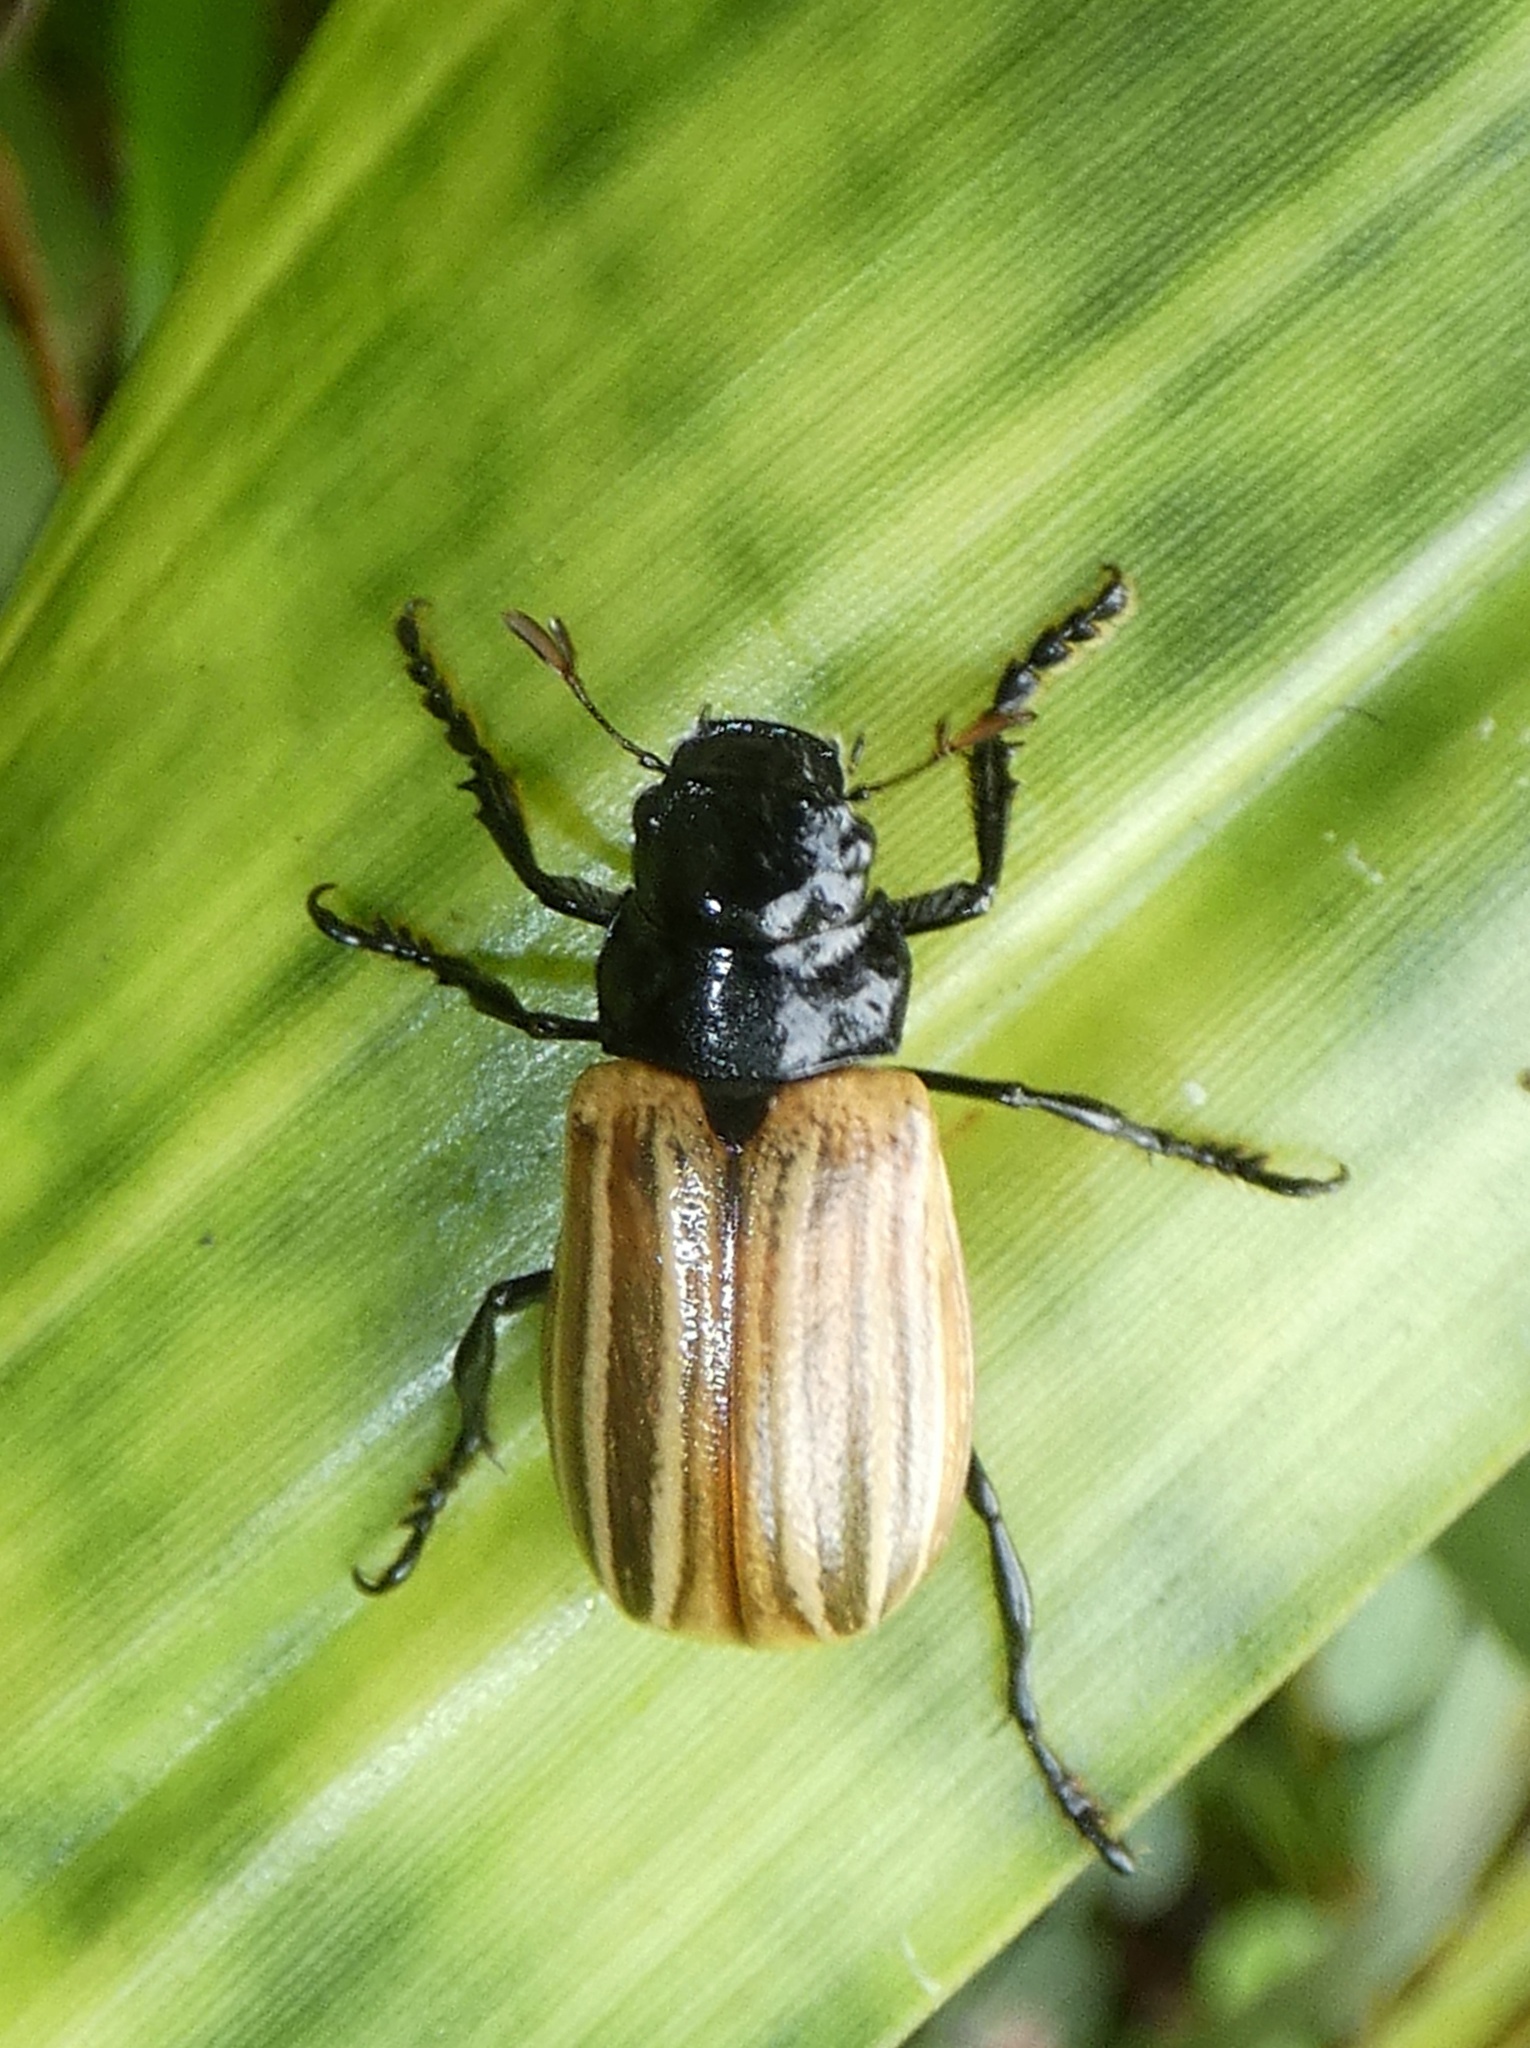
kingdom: Animalia
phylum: Arthropoda
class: Insecta
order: Coleoptera
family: Scarabaeidae
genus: Bolax
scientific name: Bolax magna
